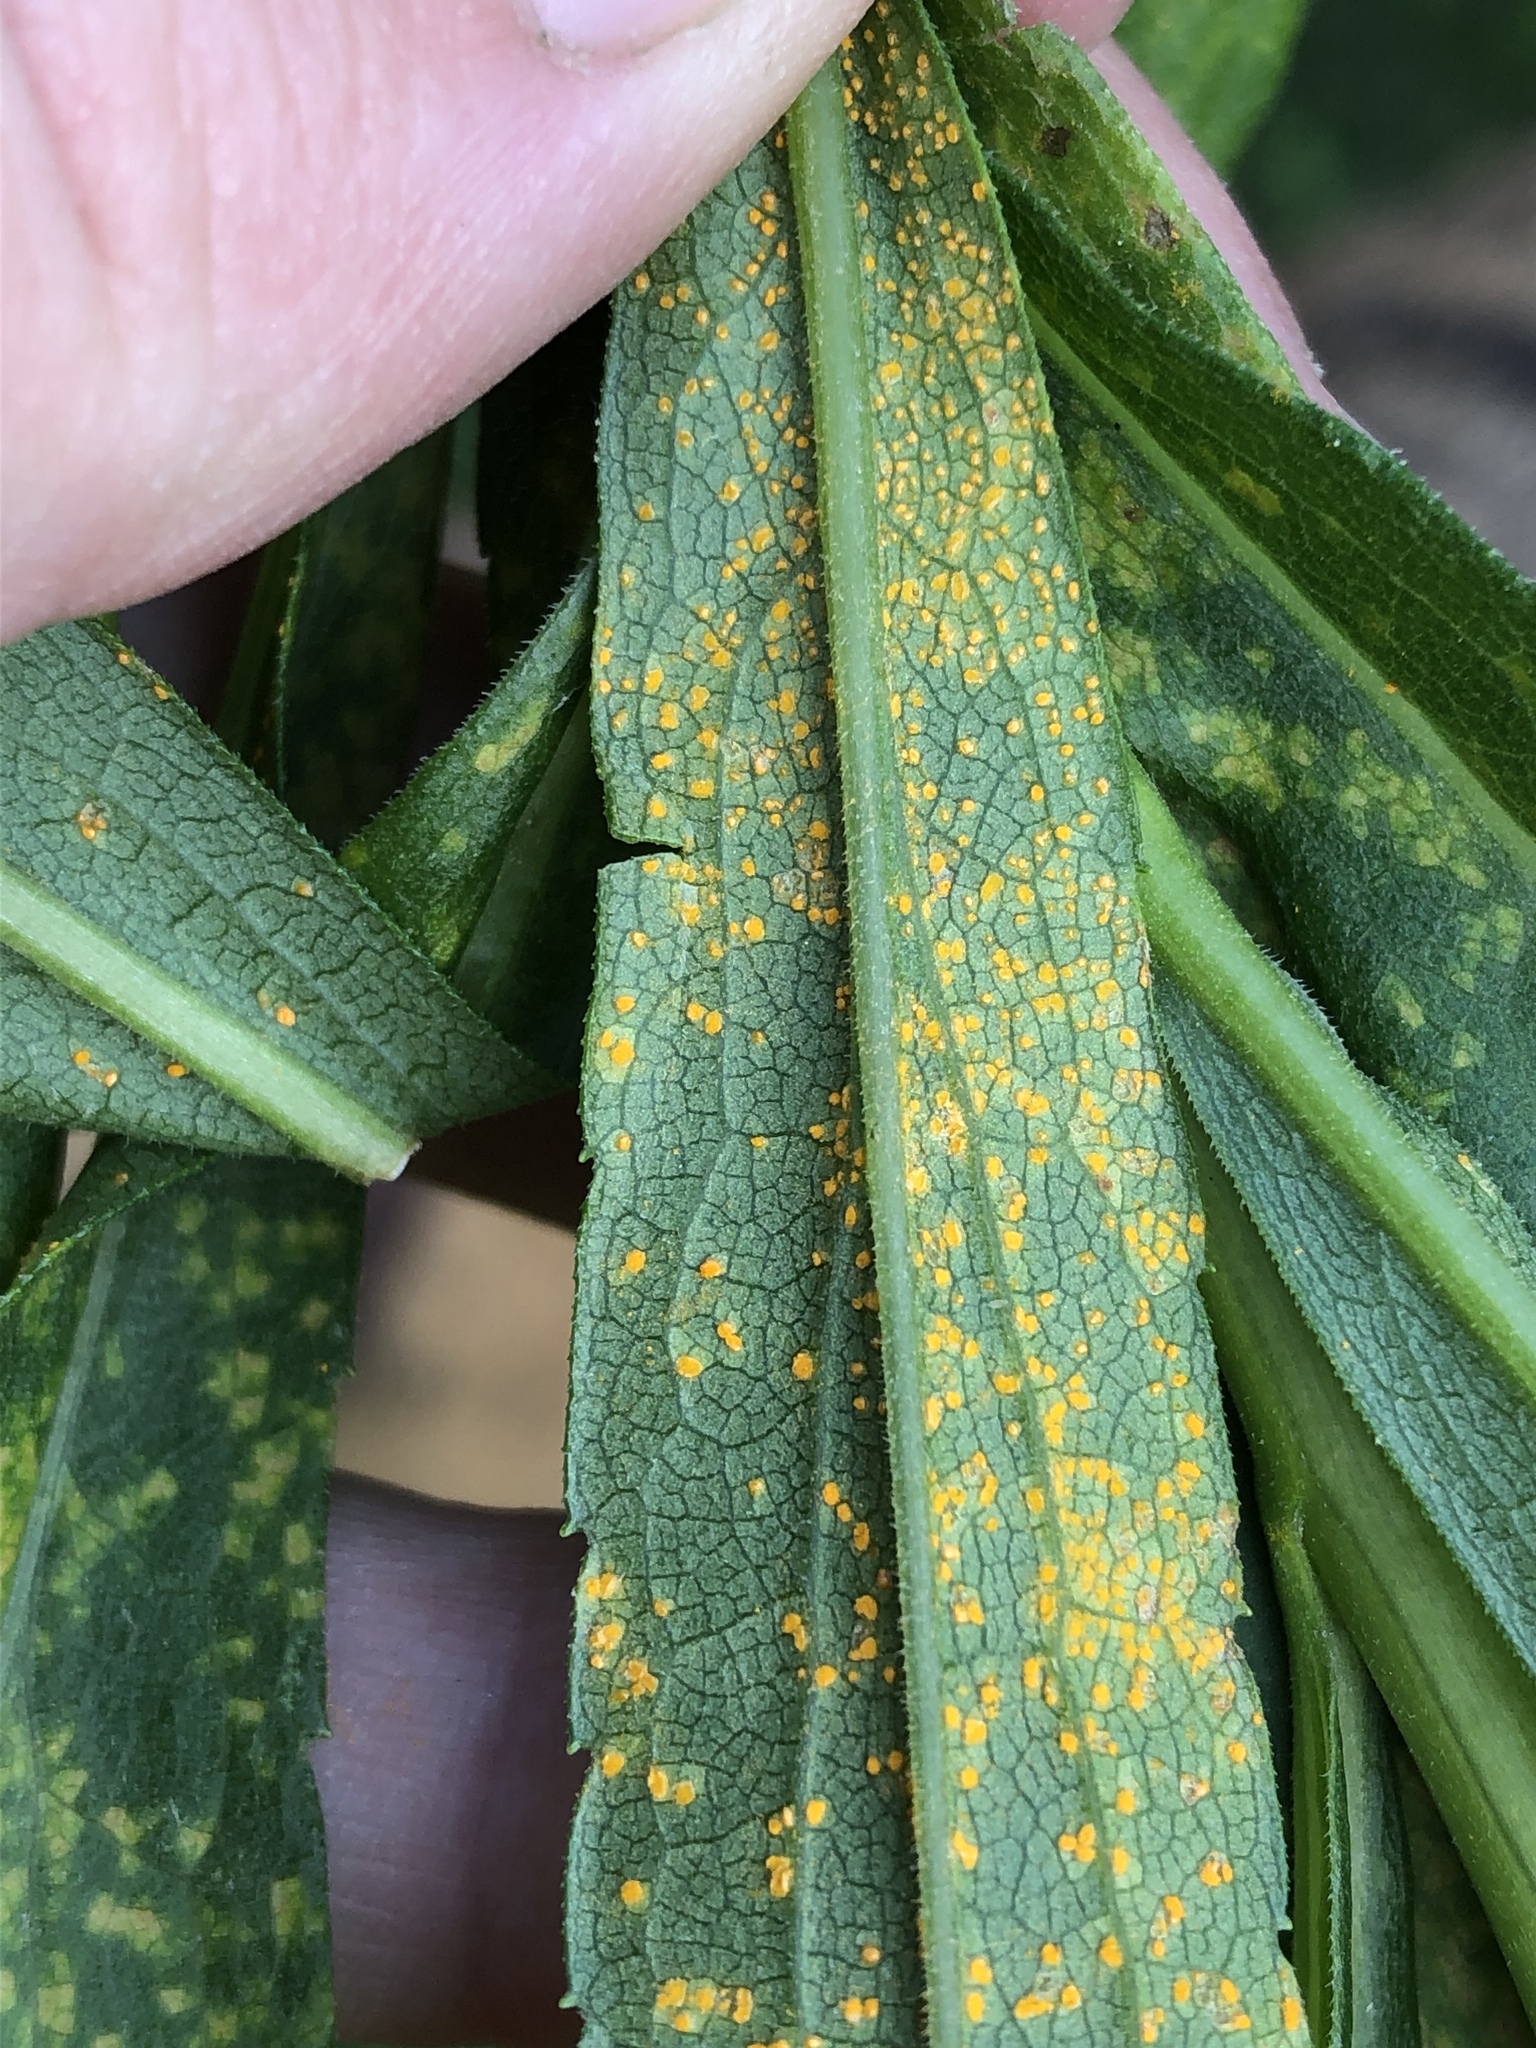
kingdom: Fungi
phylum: Basidiomycota
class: Pucciniomycetes
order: Pucciniales
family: Coleosporiaceae
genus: Coleosporium
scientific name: Coleosporium asterum
